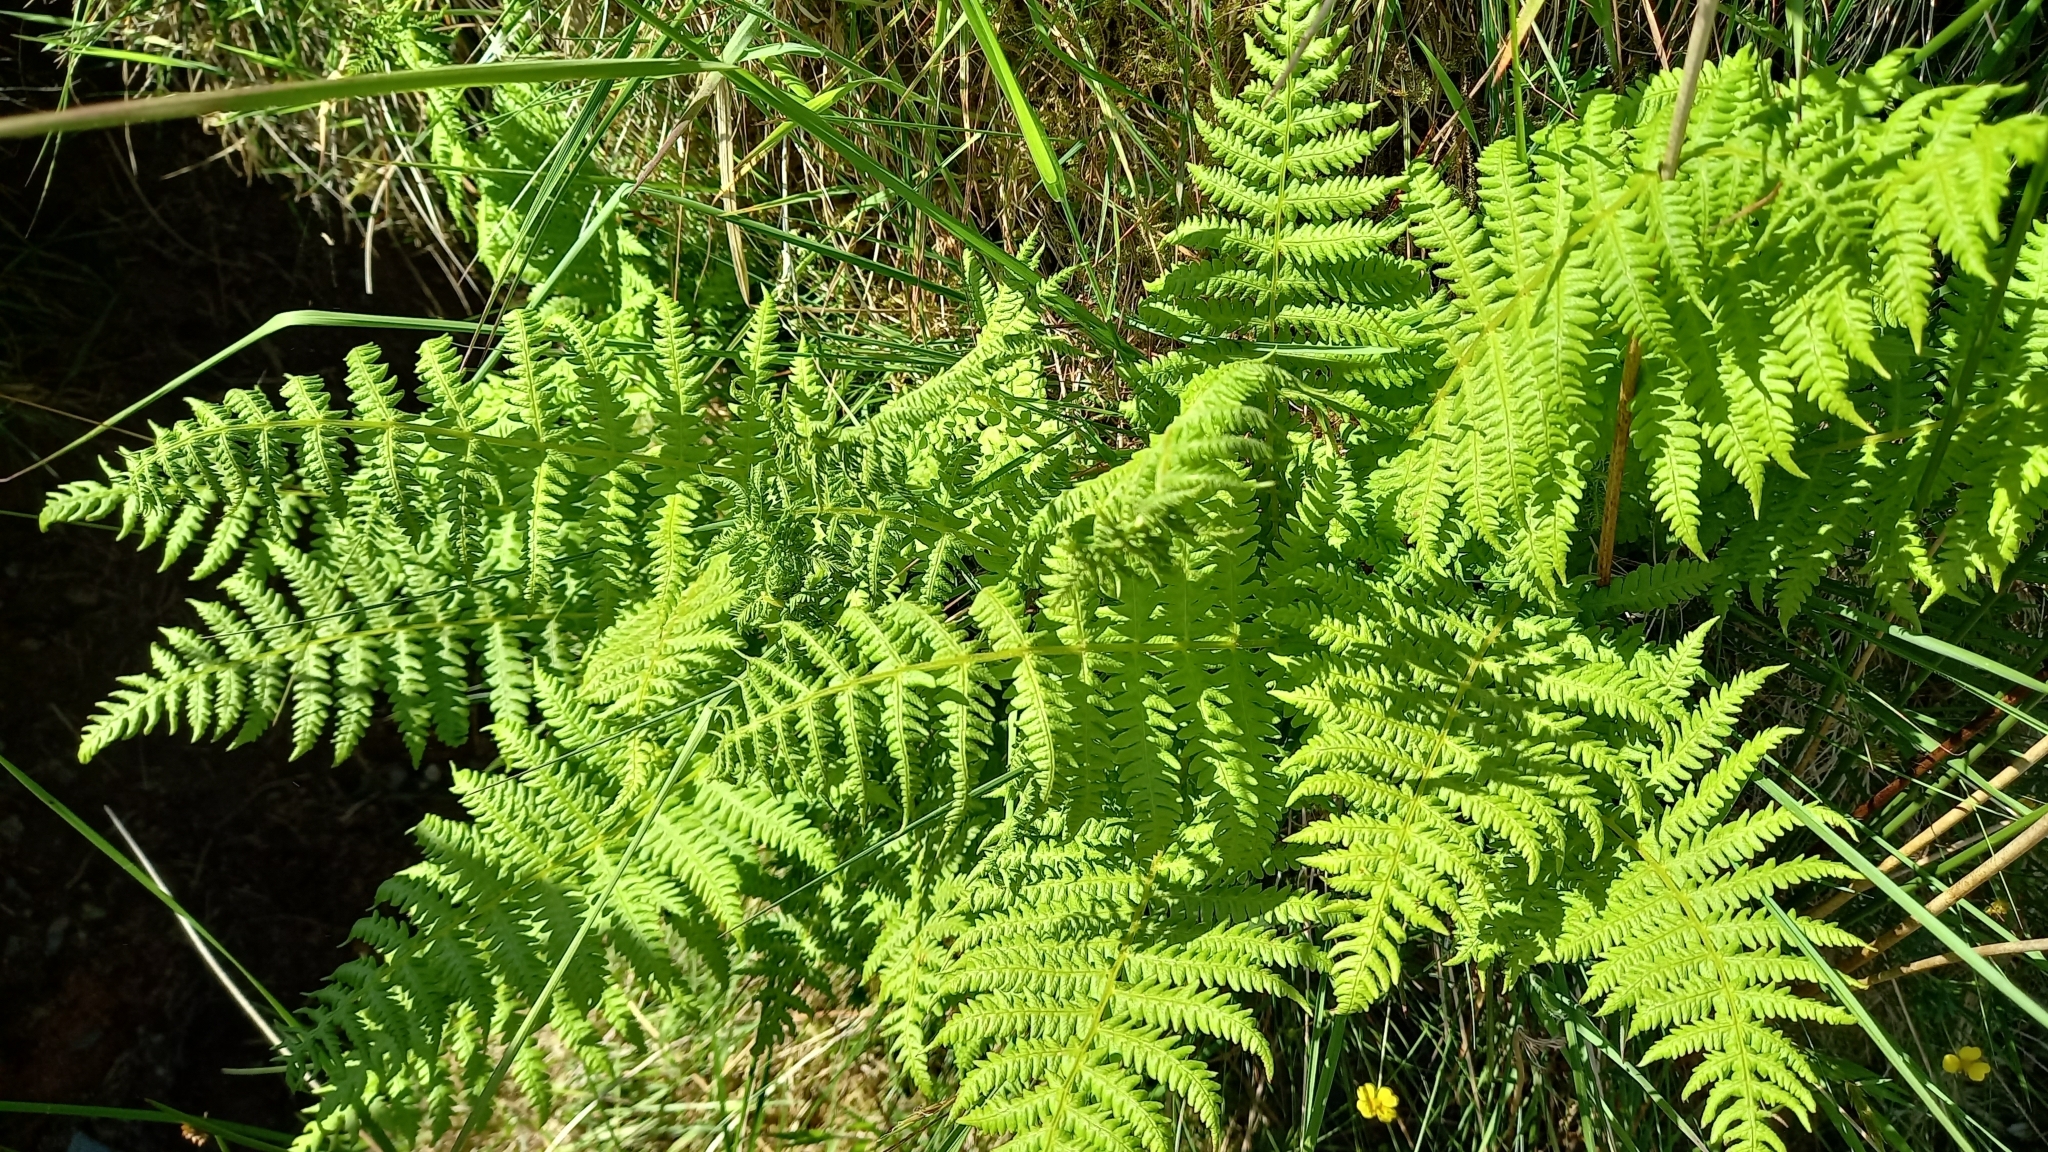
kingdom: Plantae
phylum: Tracheophyta
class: Polypodiopsida
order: Polypodiales
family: Athyriaceae
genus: Athyrium
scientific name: Athyrium filix-femina
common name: Lady fern
